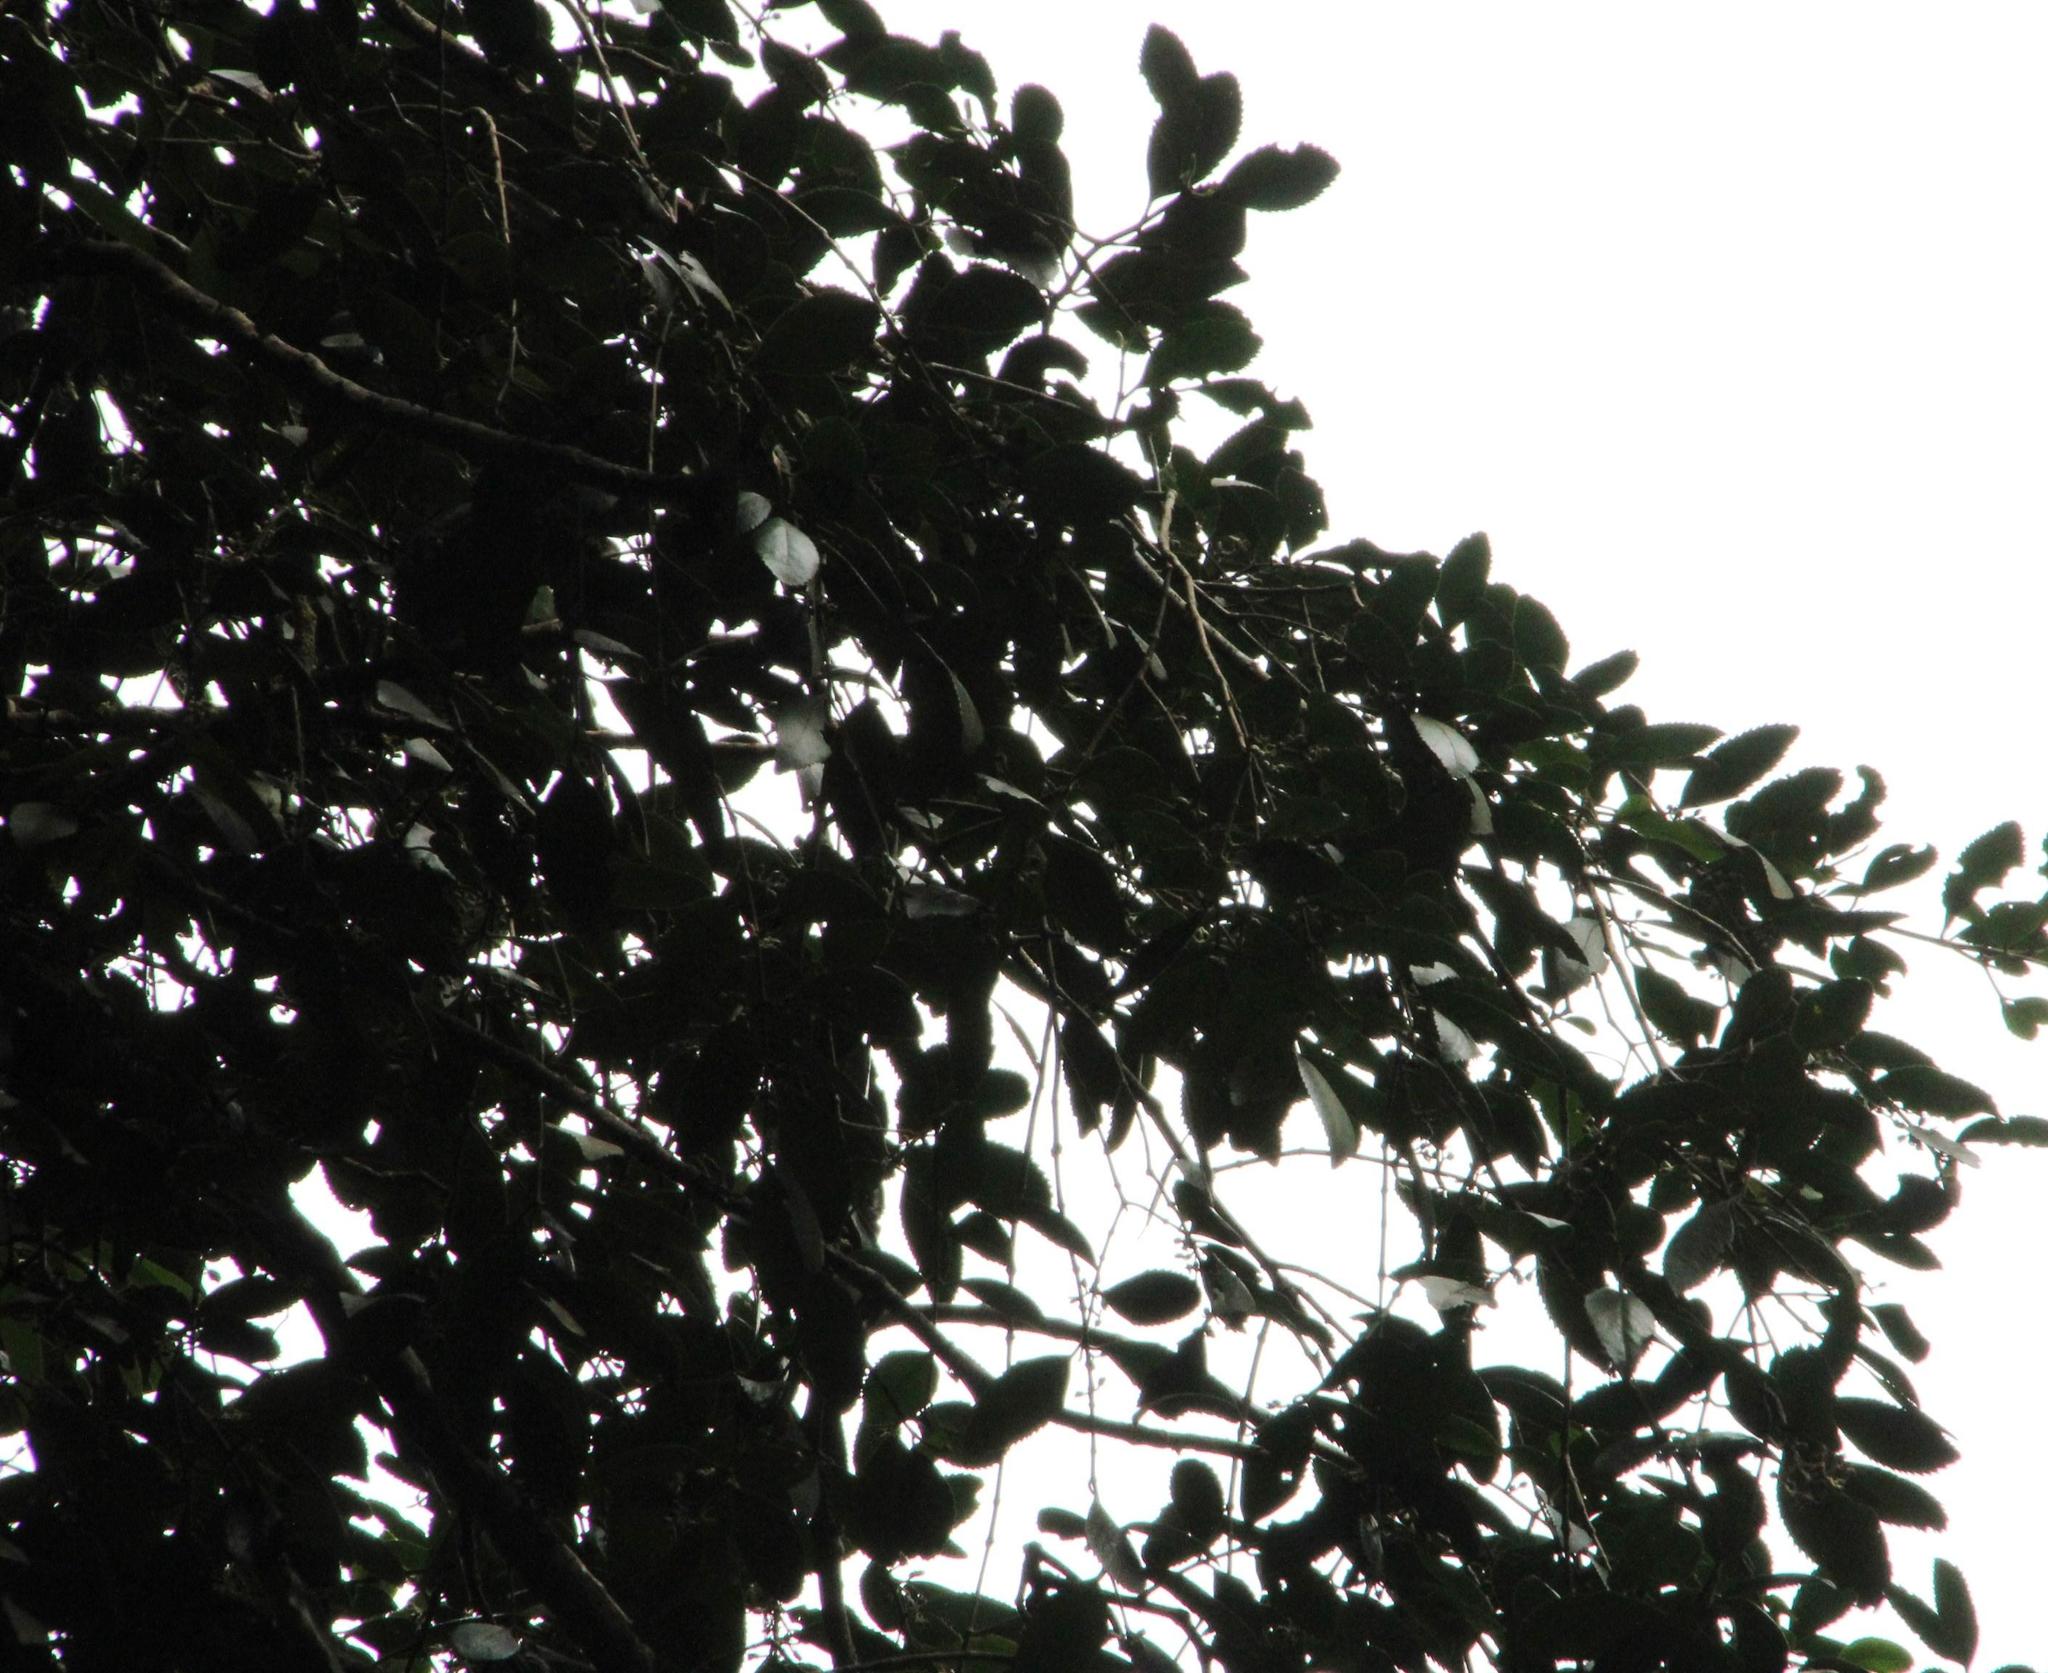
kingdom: Plantae
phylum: Tracheophyta
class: Magnoliopsida
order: Berberidopsidales
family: Aextoxicaceae
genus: Aextoxicon
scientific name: Aextoxicon punctatum
